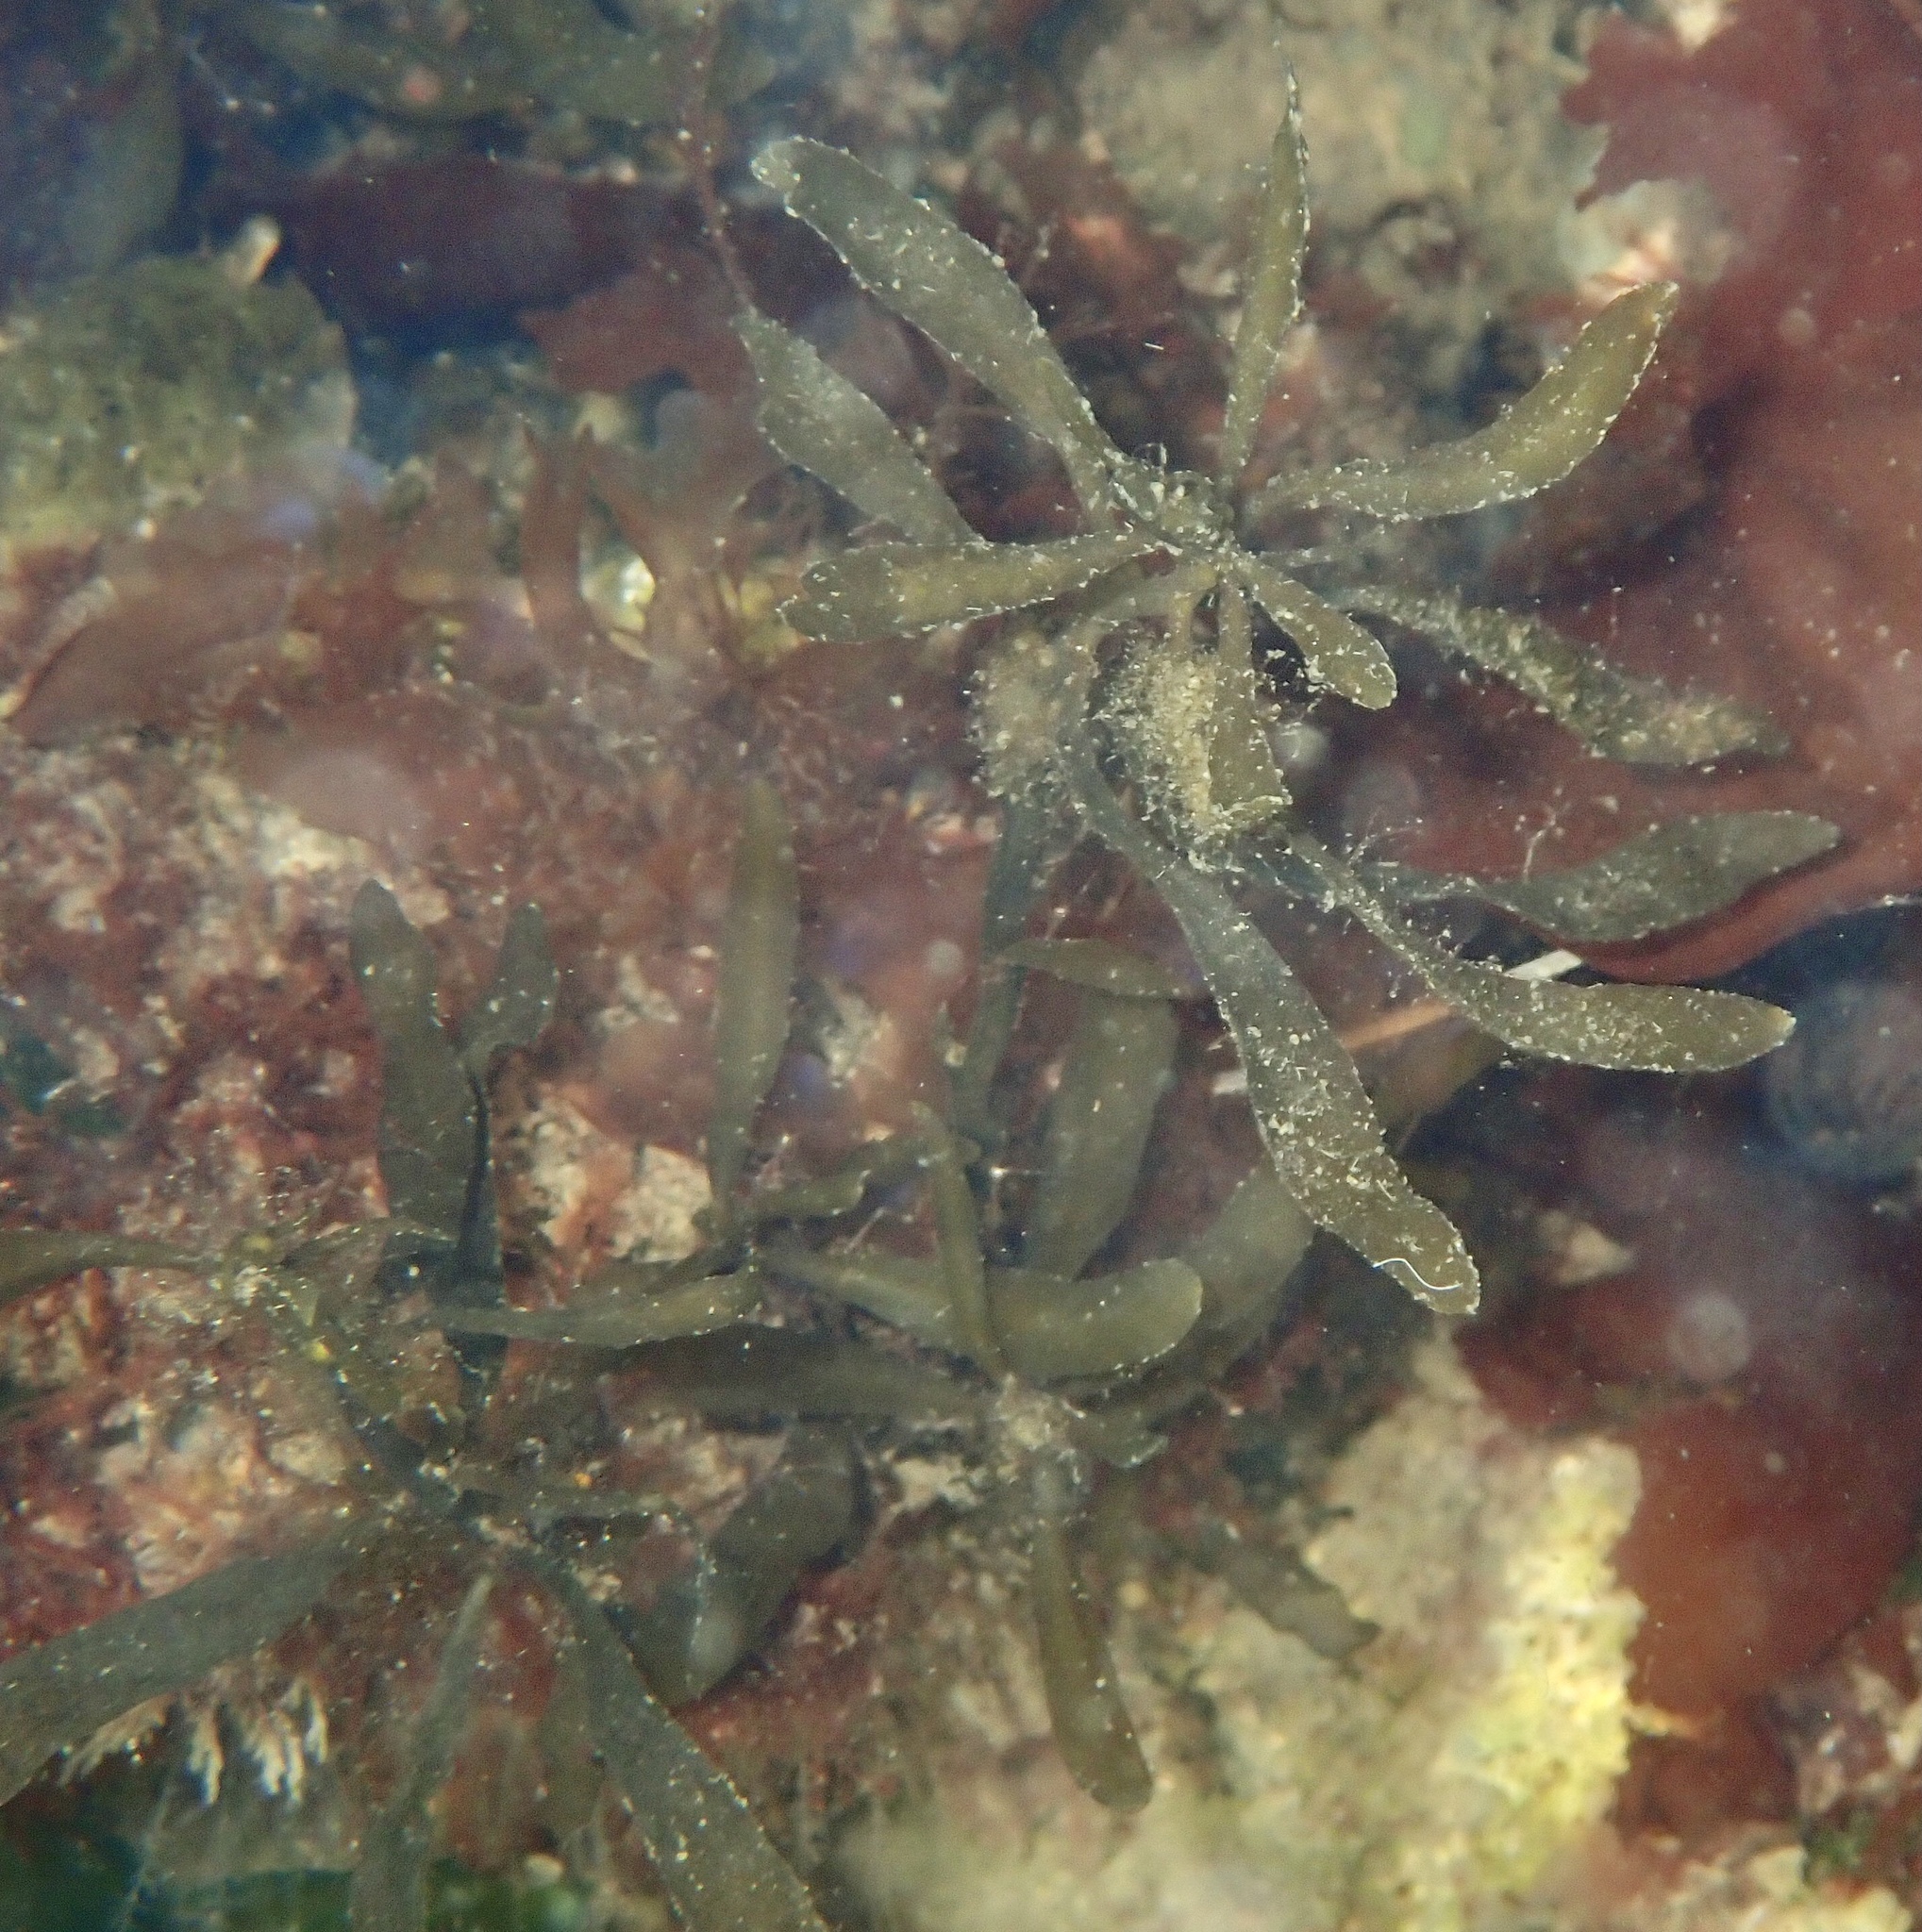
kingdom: Chromista
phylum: Ochrophyta
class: Phaeophyceae
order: Fucales
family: Sargassaceae
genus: Sargassum
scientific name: Sargassum muticum
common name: Japweed
